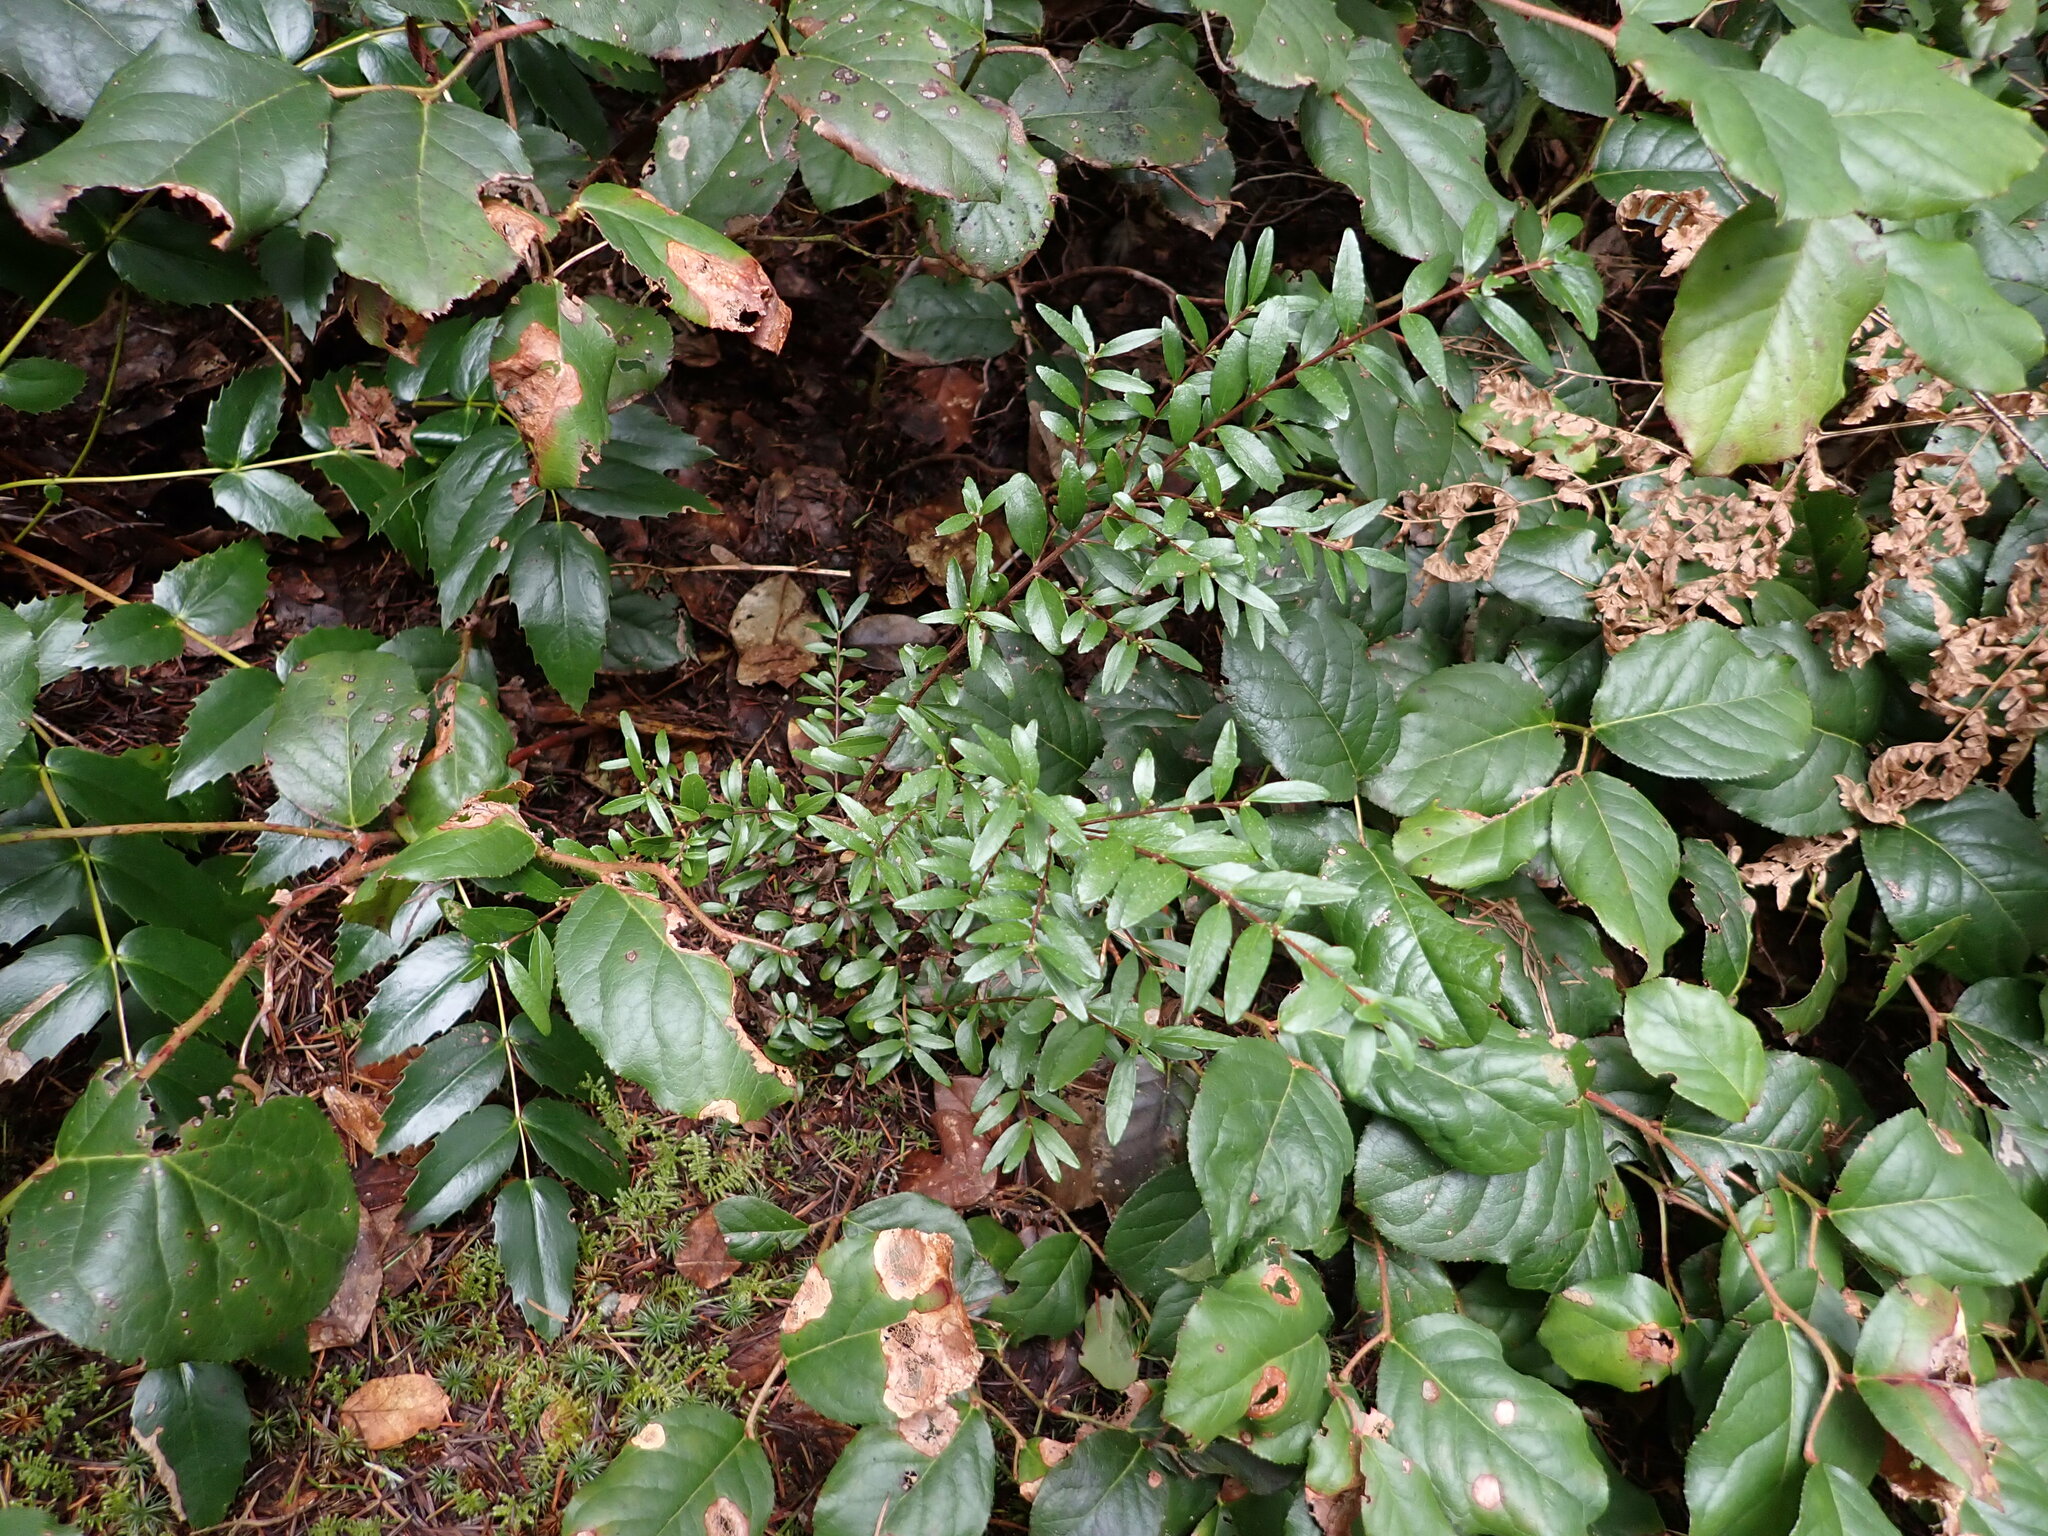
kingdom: Plantae
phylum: Tracheophyta
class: Magnoliopsida
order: Celastrales
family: Celastraceae
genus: Paxistima
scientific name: Paxistima myrsinites
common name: Mountain-lover
